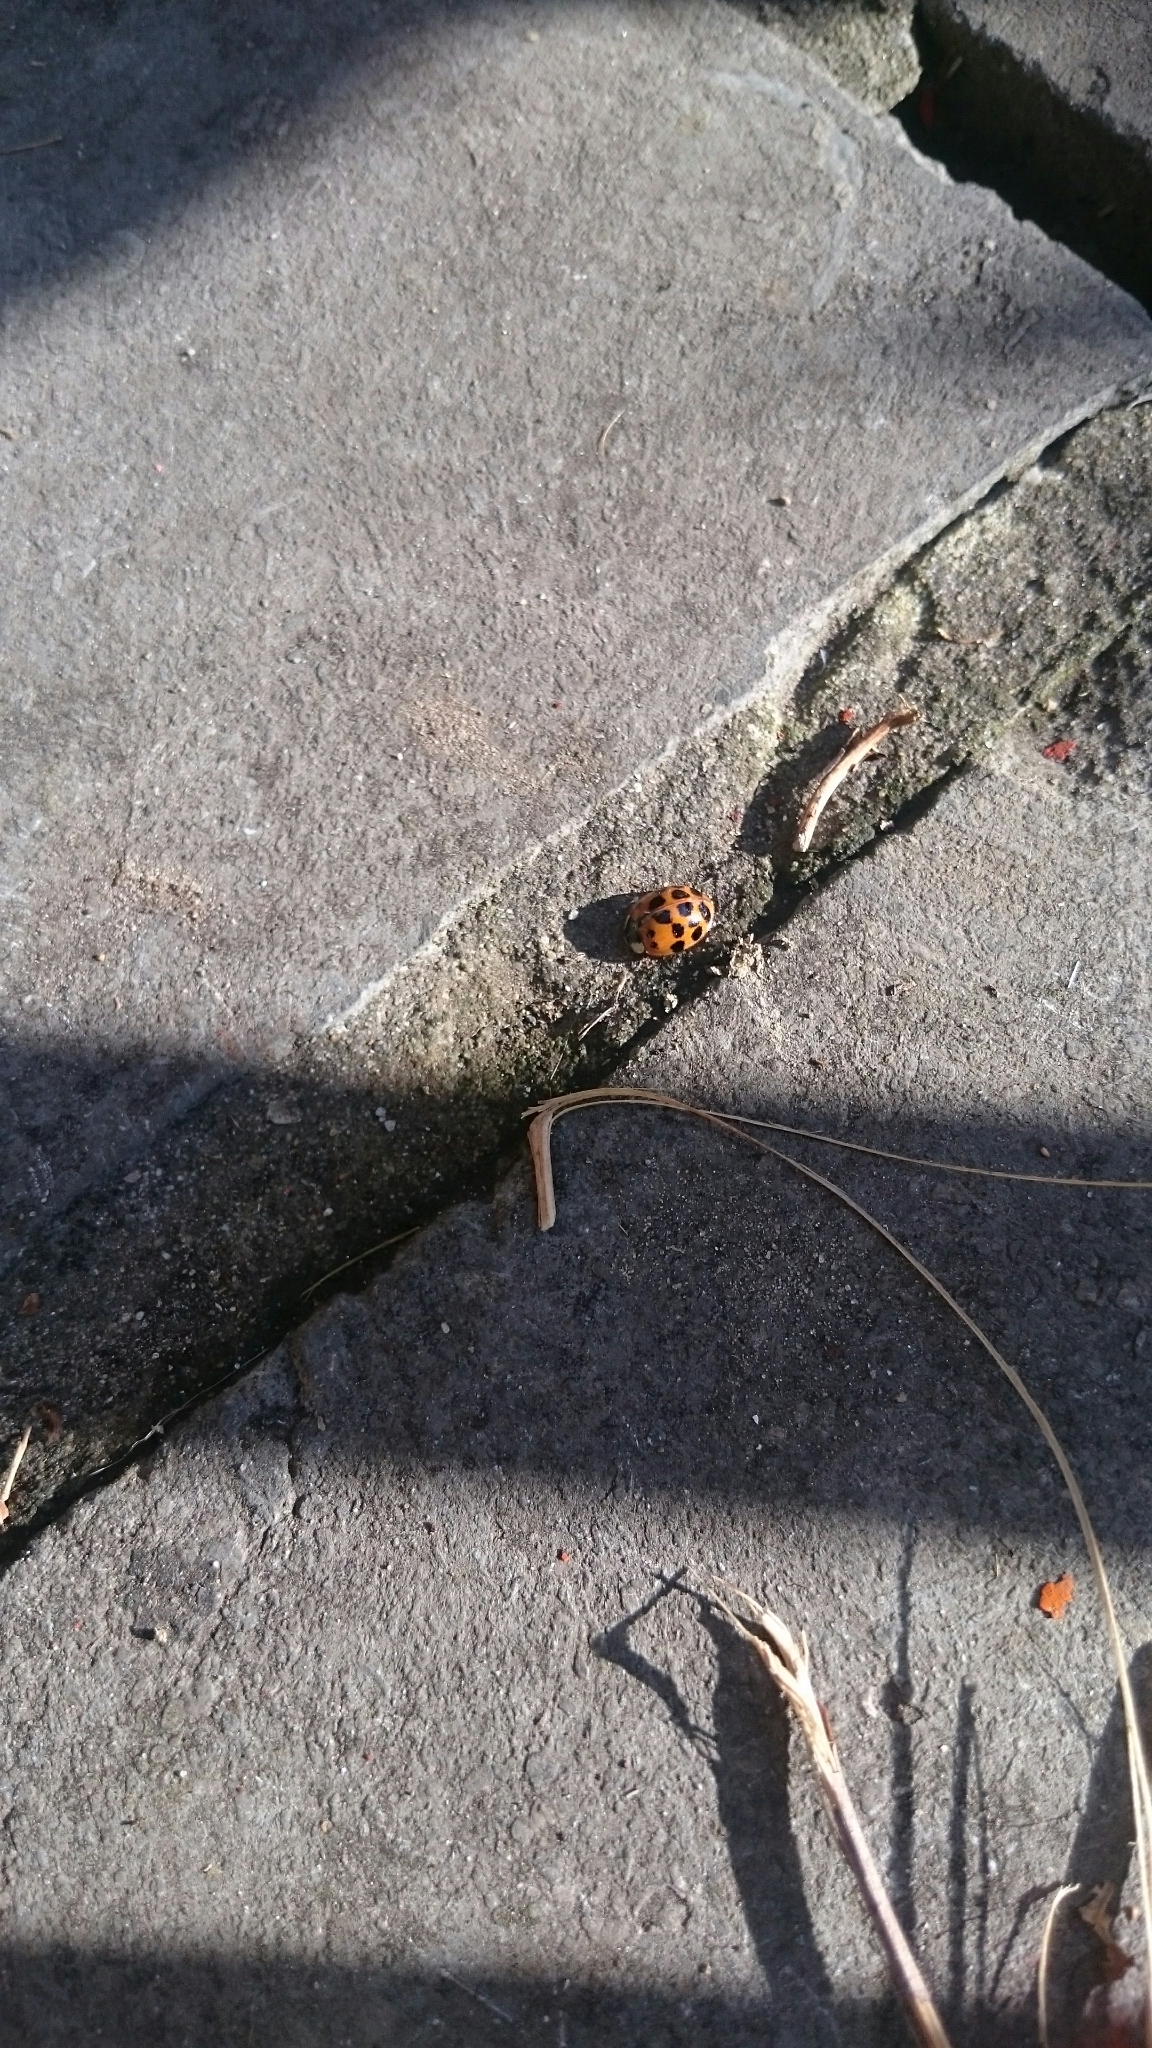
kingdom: Animalia
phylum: Arthropoda
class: Insecta
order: Coleoptera
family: Coccinellidae
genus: Harmonia
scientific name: Harmonia axyridis
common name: Harlequin ladybird
